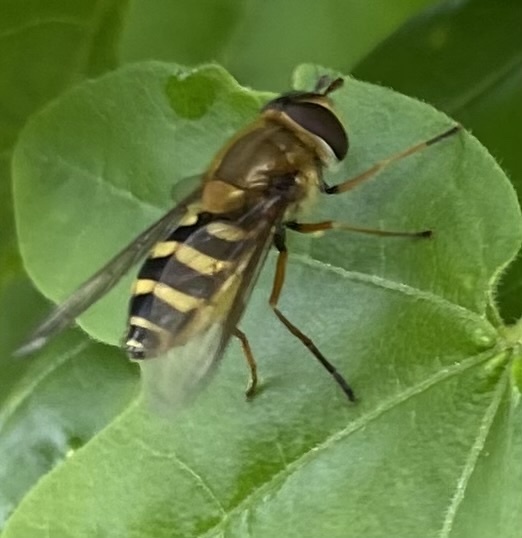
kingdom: Animalia
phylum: Arthropoda
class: Insecta
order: Diptera
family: Syrphidae
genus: Syrphus
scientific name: Syrphus ribesii
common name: Common flower fly
